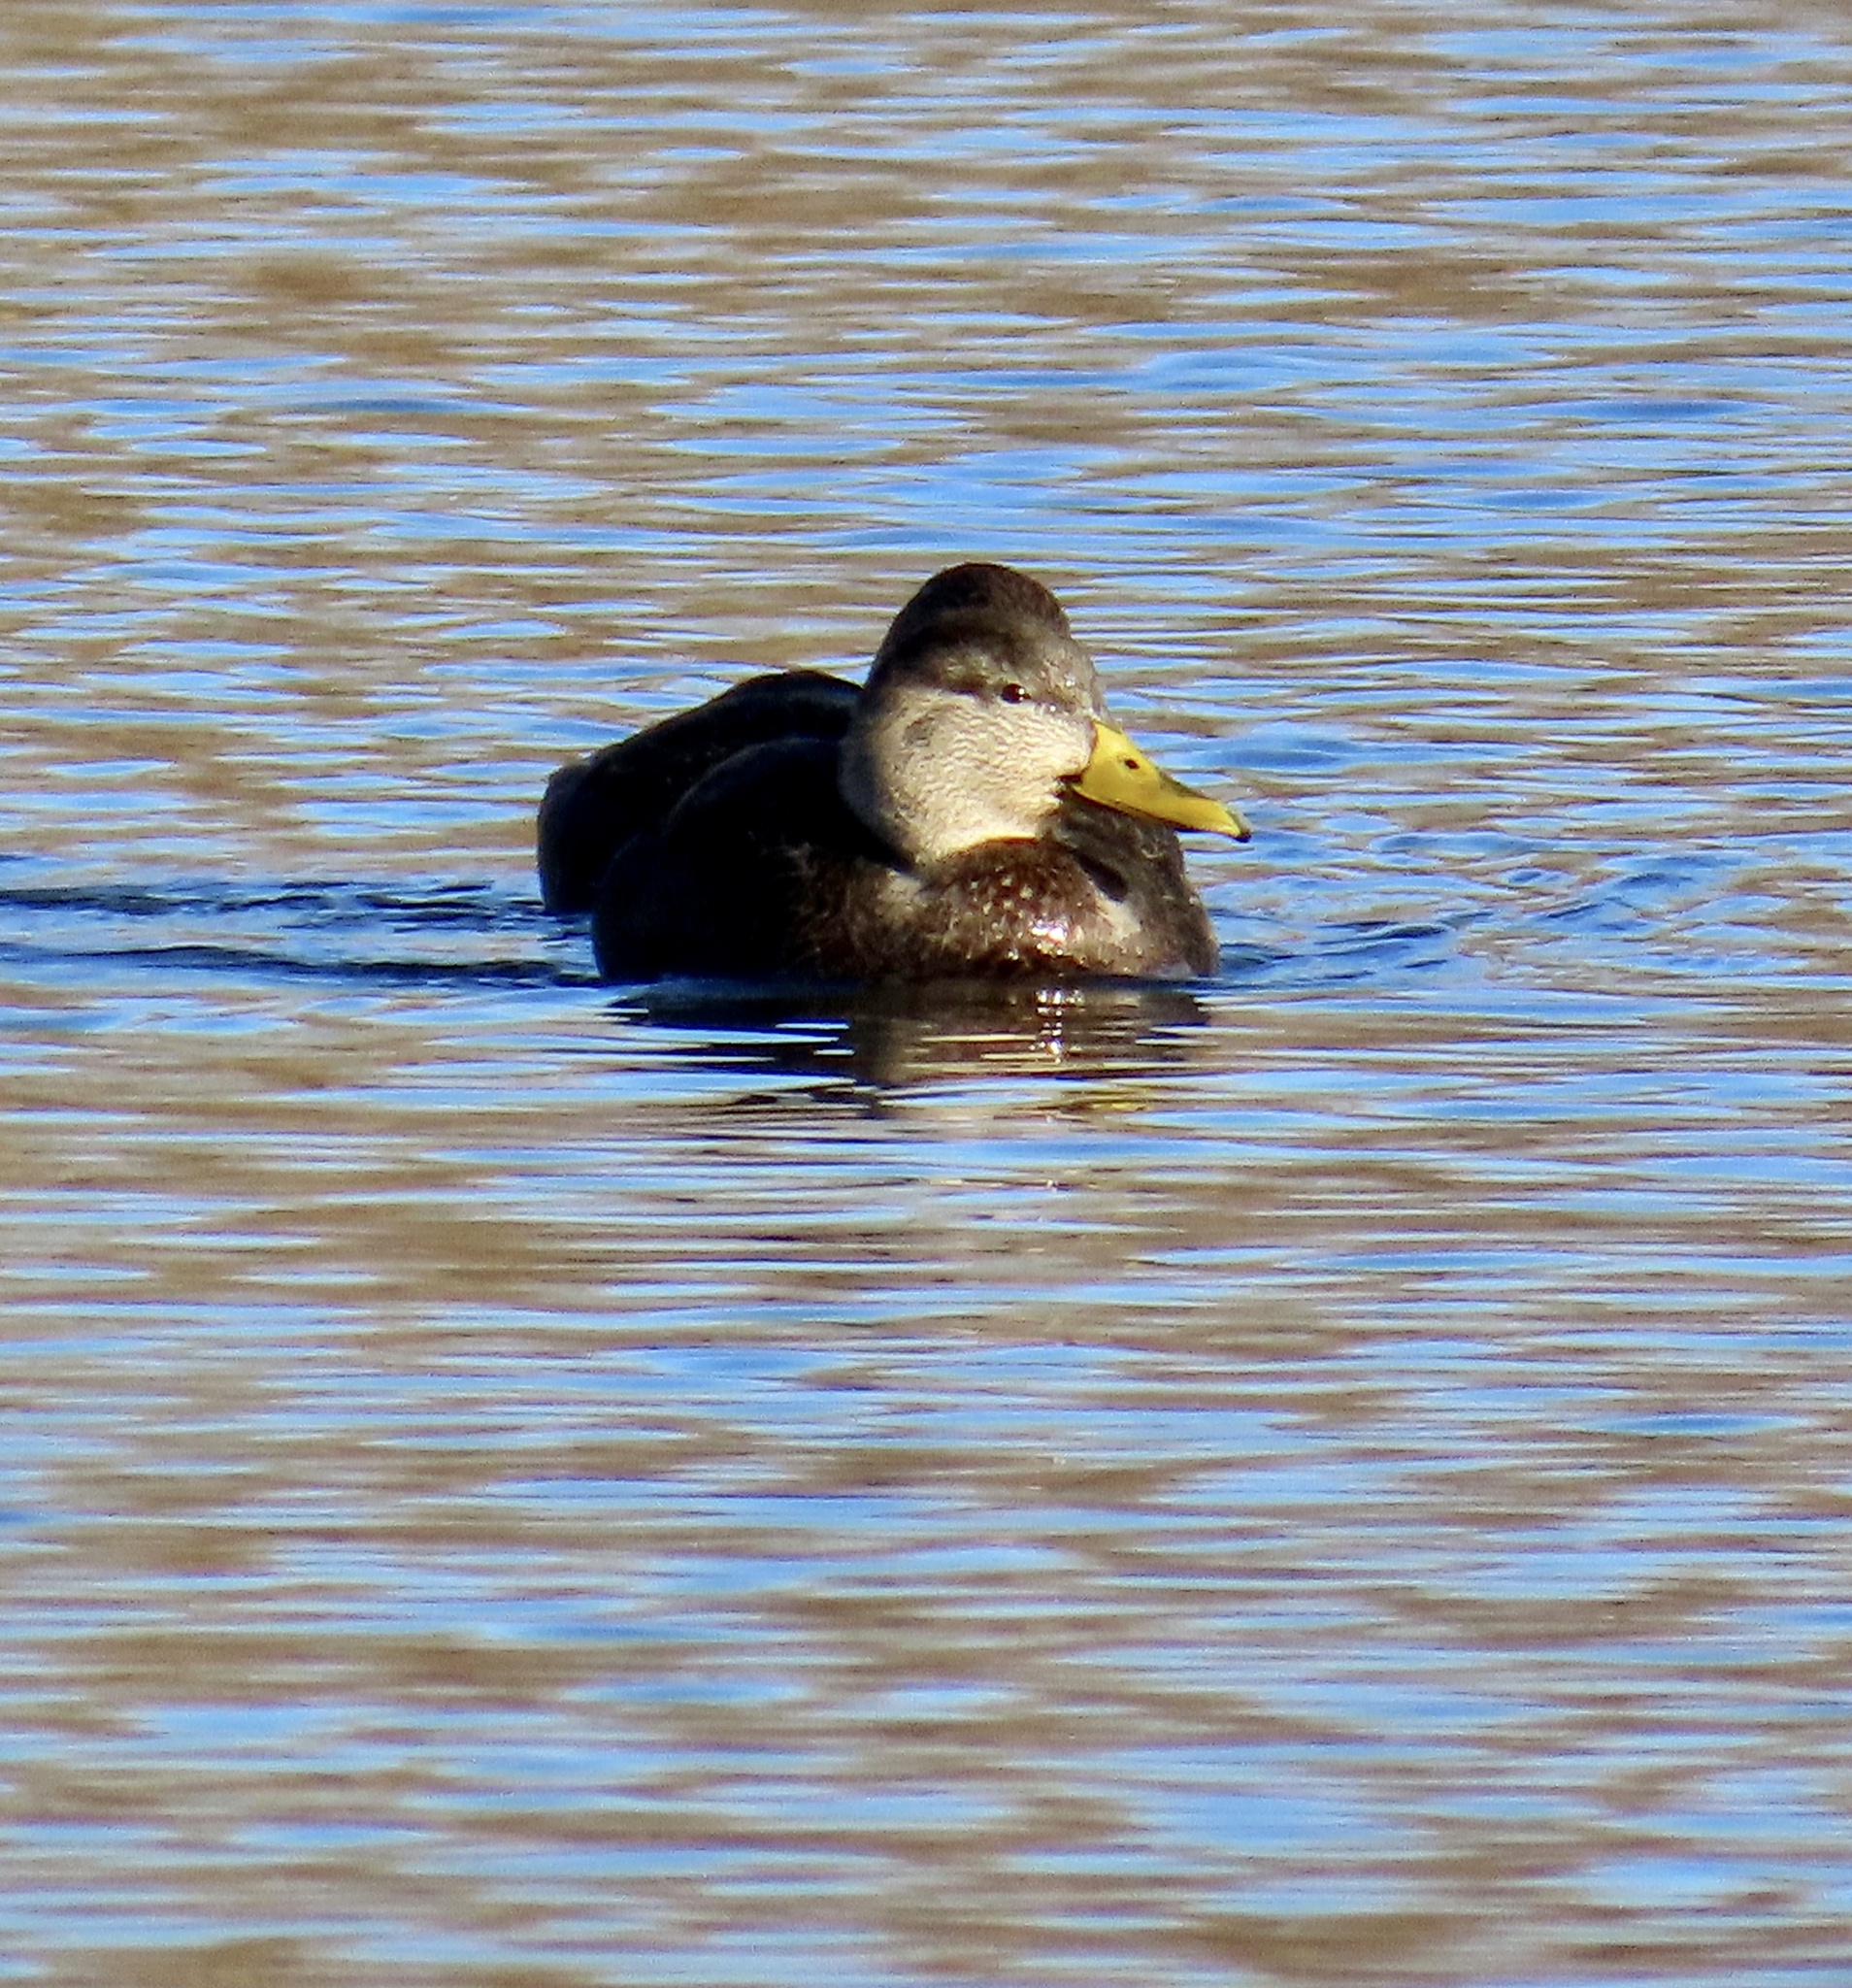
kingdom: Animalia
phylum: Chordata
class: Aves
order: Anseriformes
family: Anatidae
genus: Anas
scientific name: Anas rubripes
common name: American black duck
